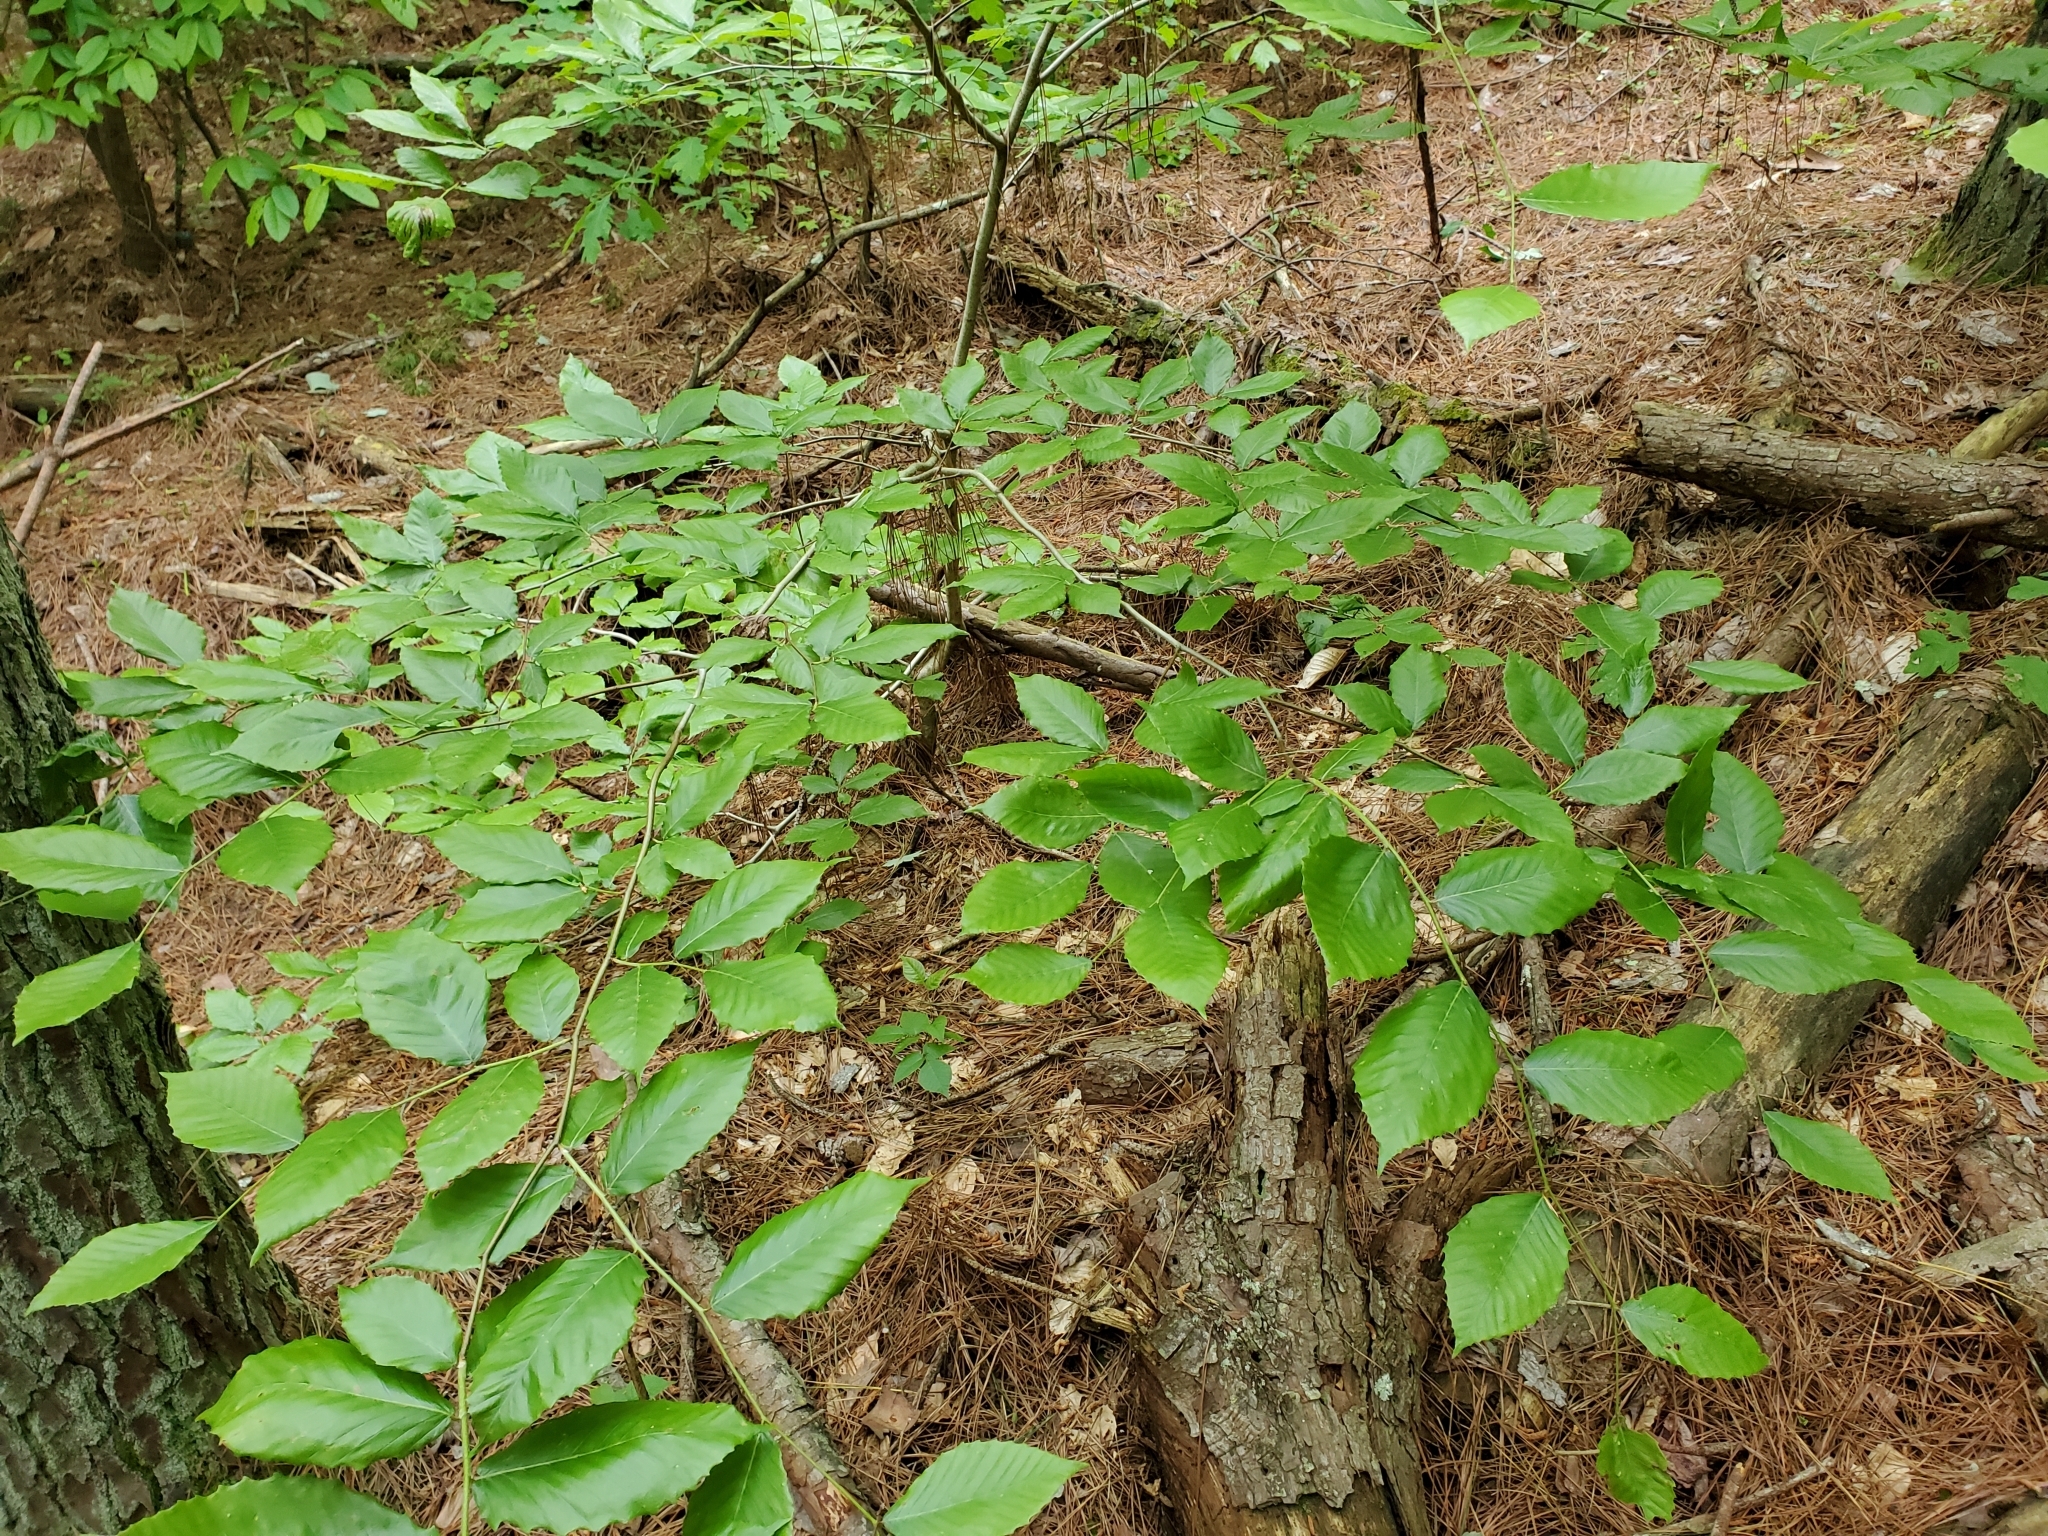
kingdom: Plantae
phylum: Tracheophyta
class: Magnoliopsida
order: Fagales
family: Fagaceae
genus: Fagus
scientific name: Fagus grandifolia
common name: American beech
